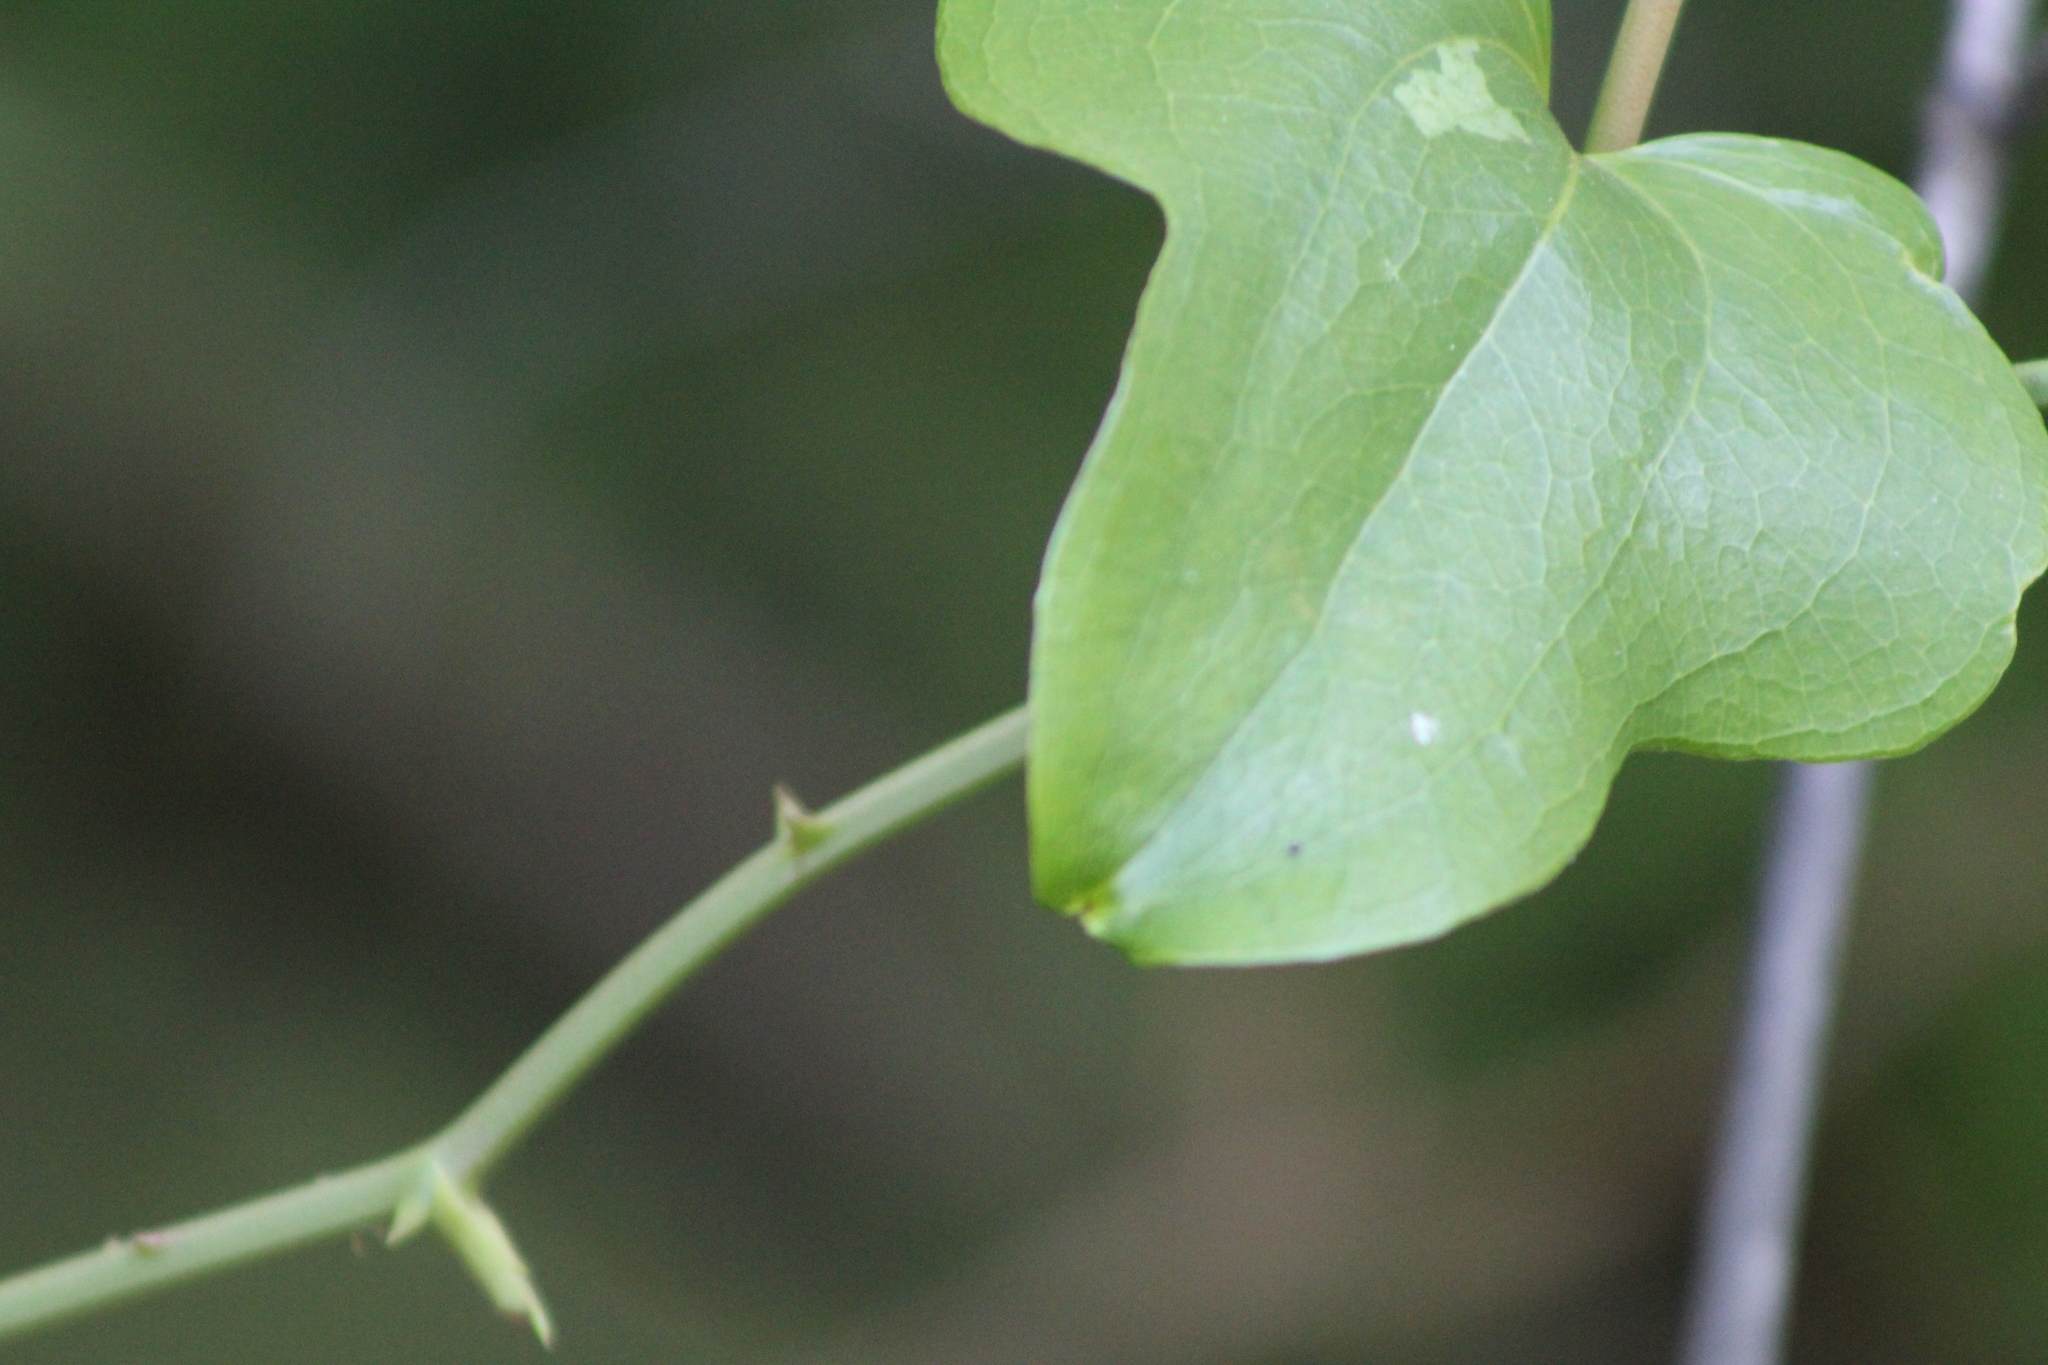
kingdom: Plantae
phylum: Tracheophyta
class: Liliopsida
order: Liliales
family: Smilacaceae
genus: Smilax
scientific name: Smilax bona-nox
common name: Catbrier
